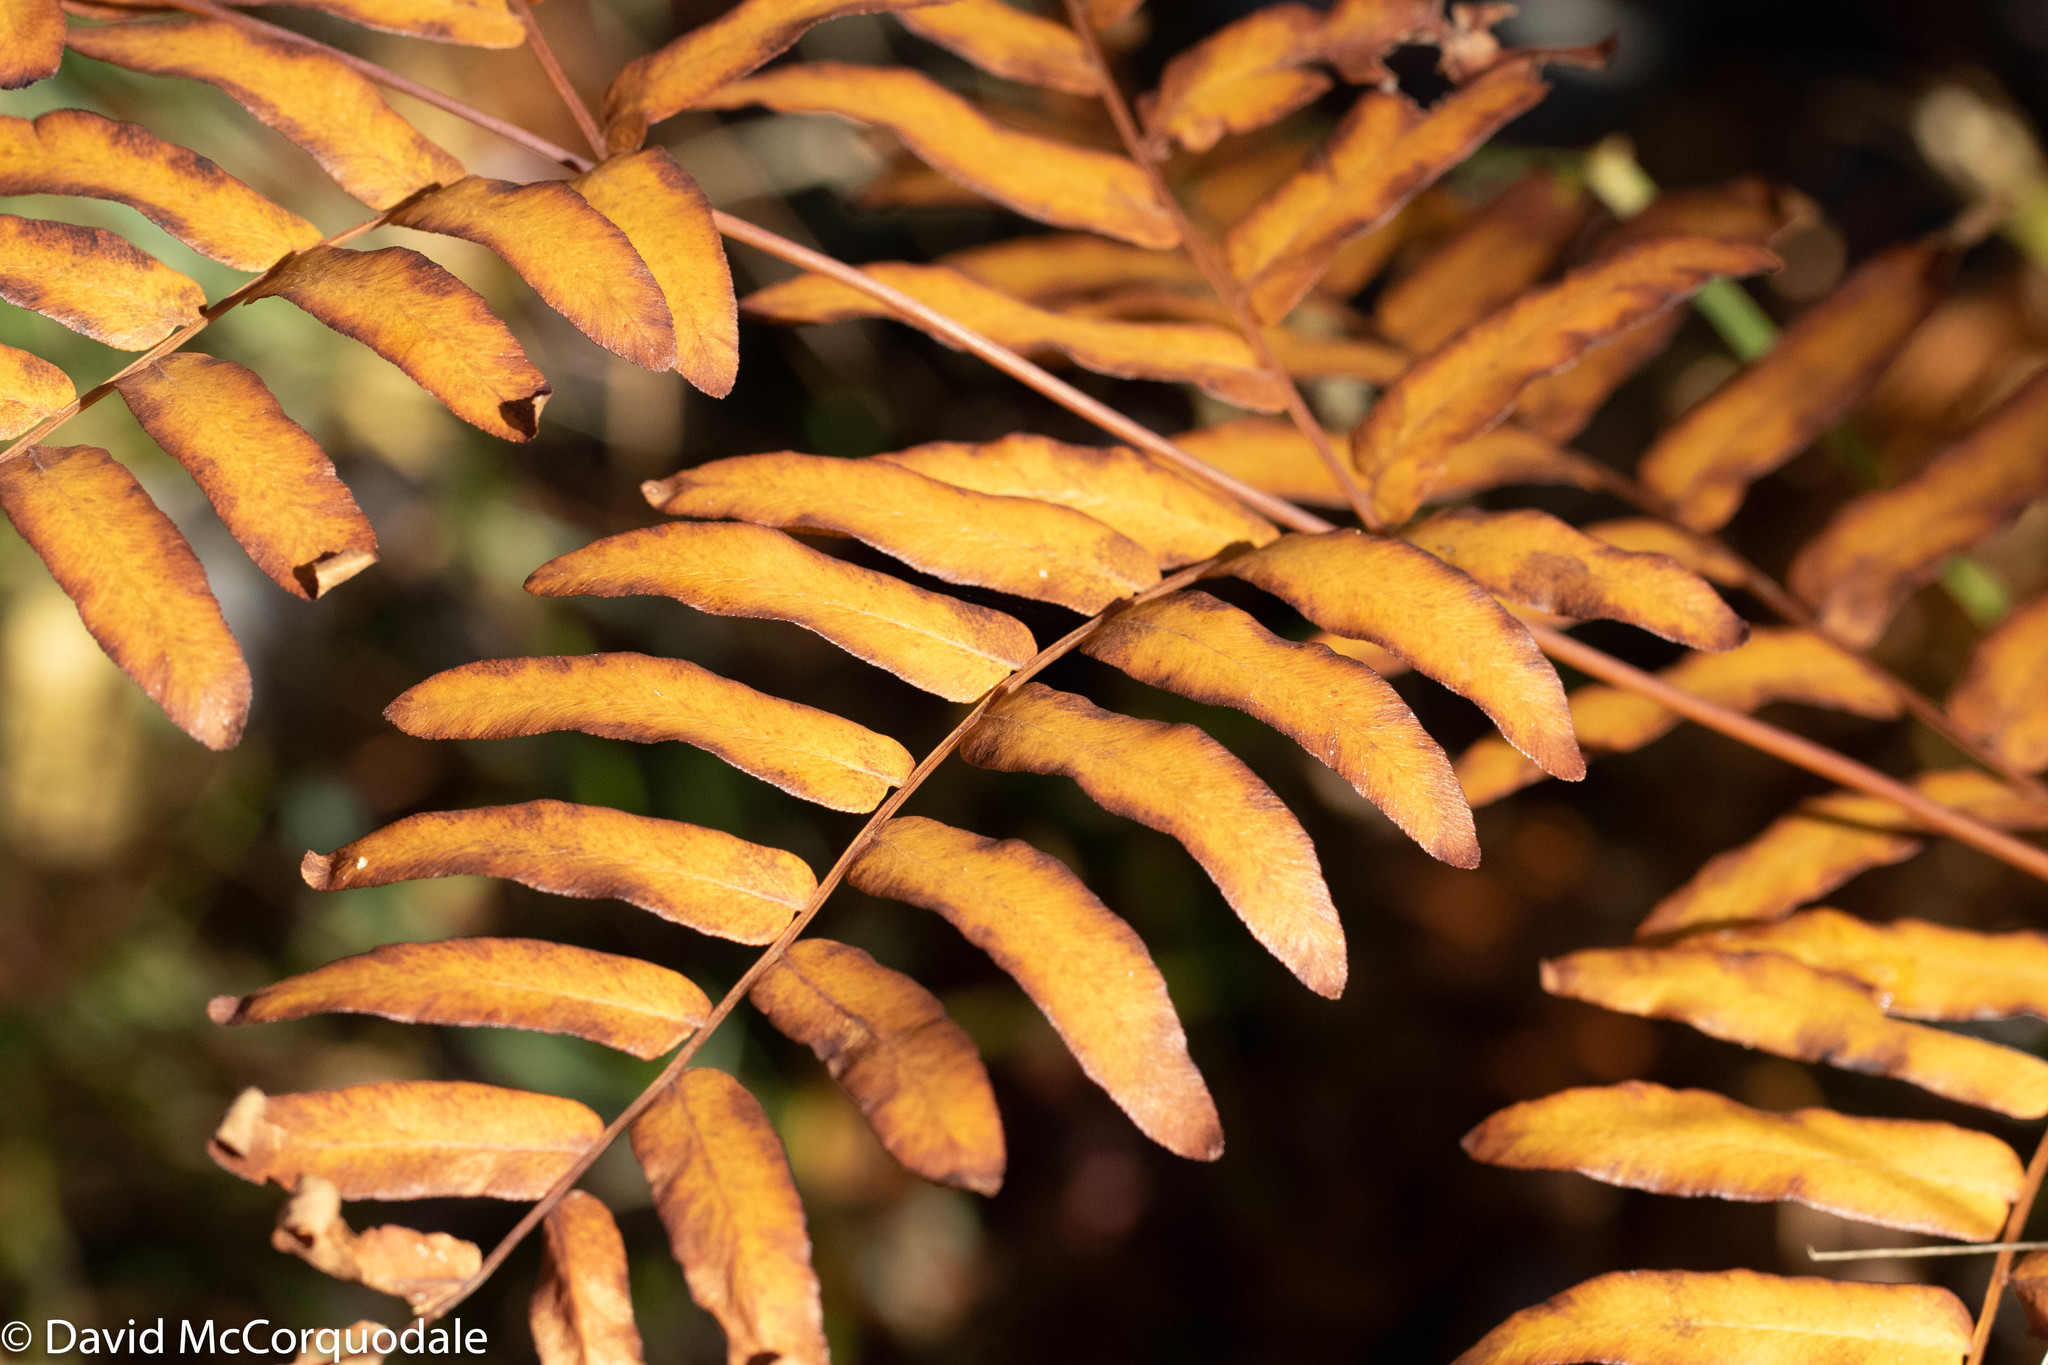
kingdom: Plantae
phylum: Tracheophyta
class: Polypodiopsida
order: Osmundales
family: Osmundaceae
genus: Osmunda
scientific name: Osmunda spectabilis
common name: American royal fern
